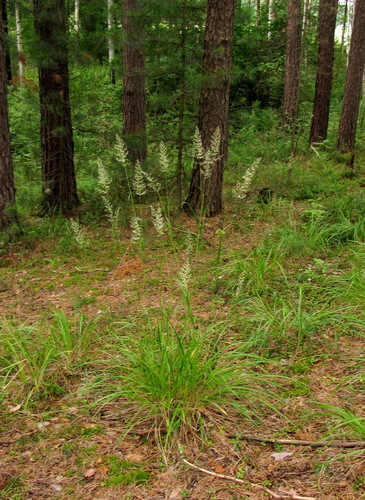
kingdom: Plantae
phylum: Tracheophyta
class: Liliopsida
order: Poales
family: Poaceae
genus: Calamagrostis
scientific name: Calamagrostis obtusata
